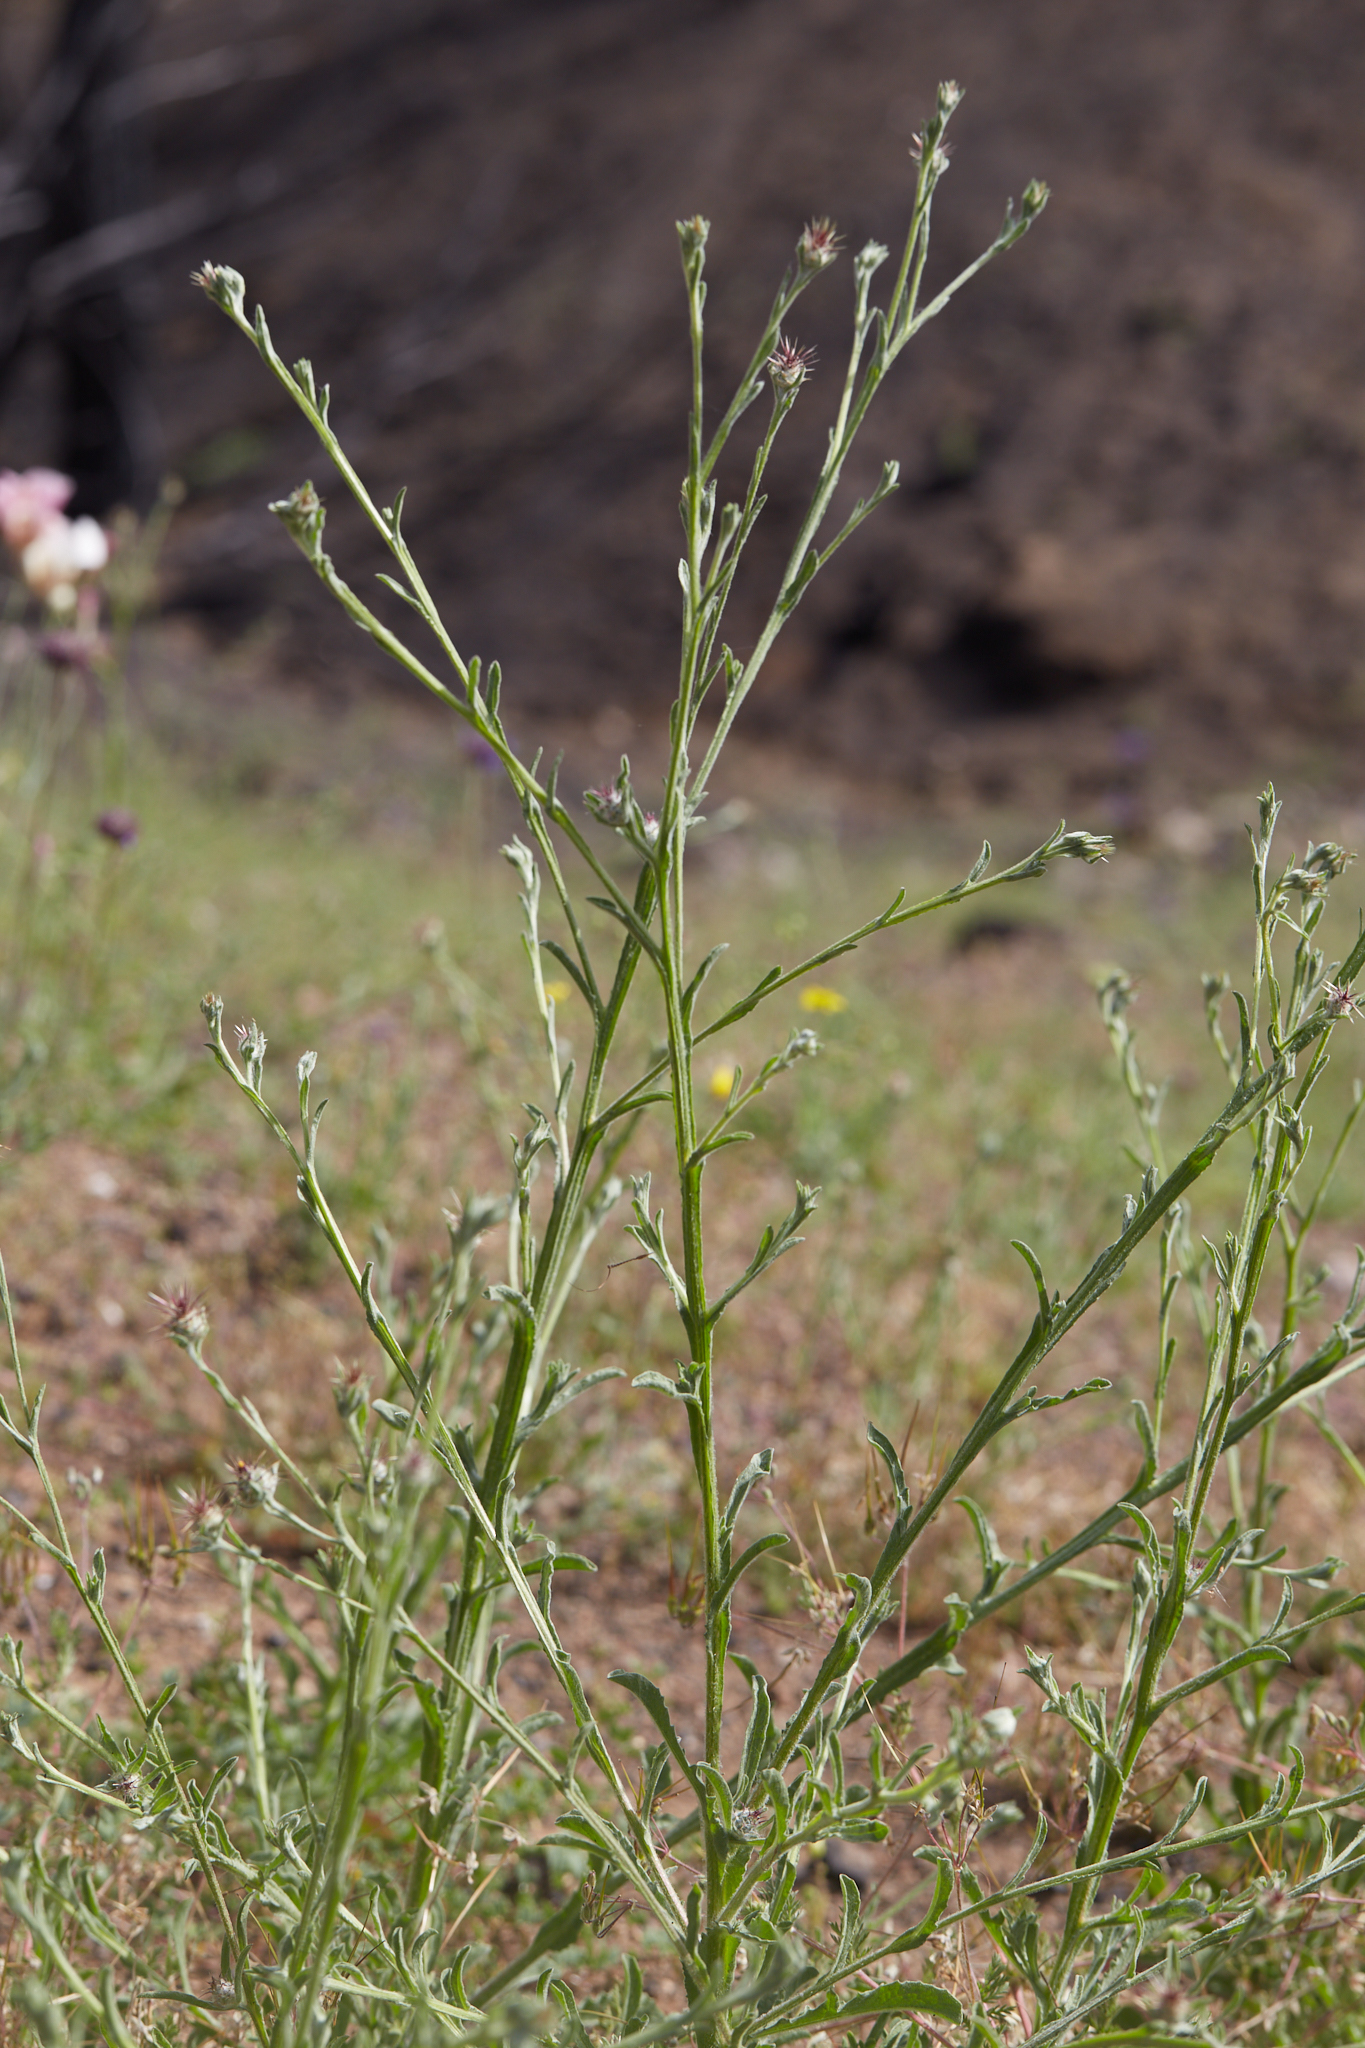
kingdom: Plantae
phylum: Tracheophyta
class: Magnoliopsida
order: Asterales
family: Asteraceae
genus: Centaurea
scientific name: Centaurea melitensis
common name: Maltese star-thistle
